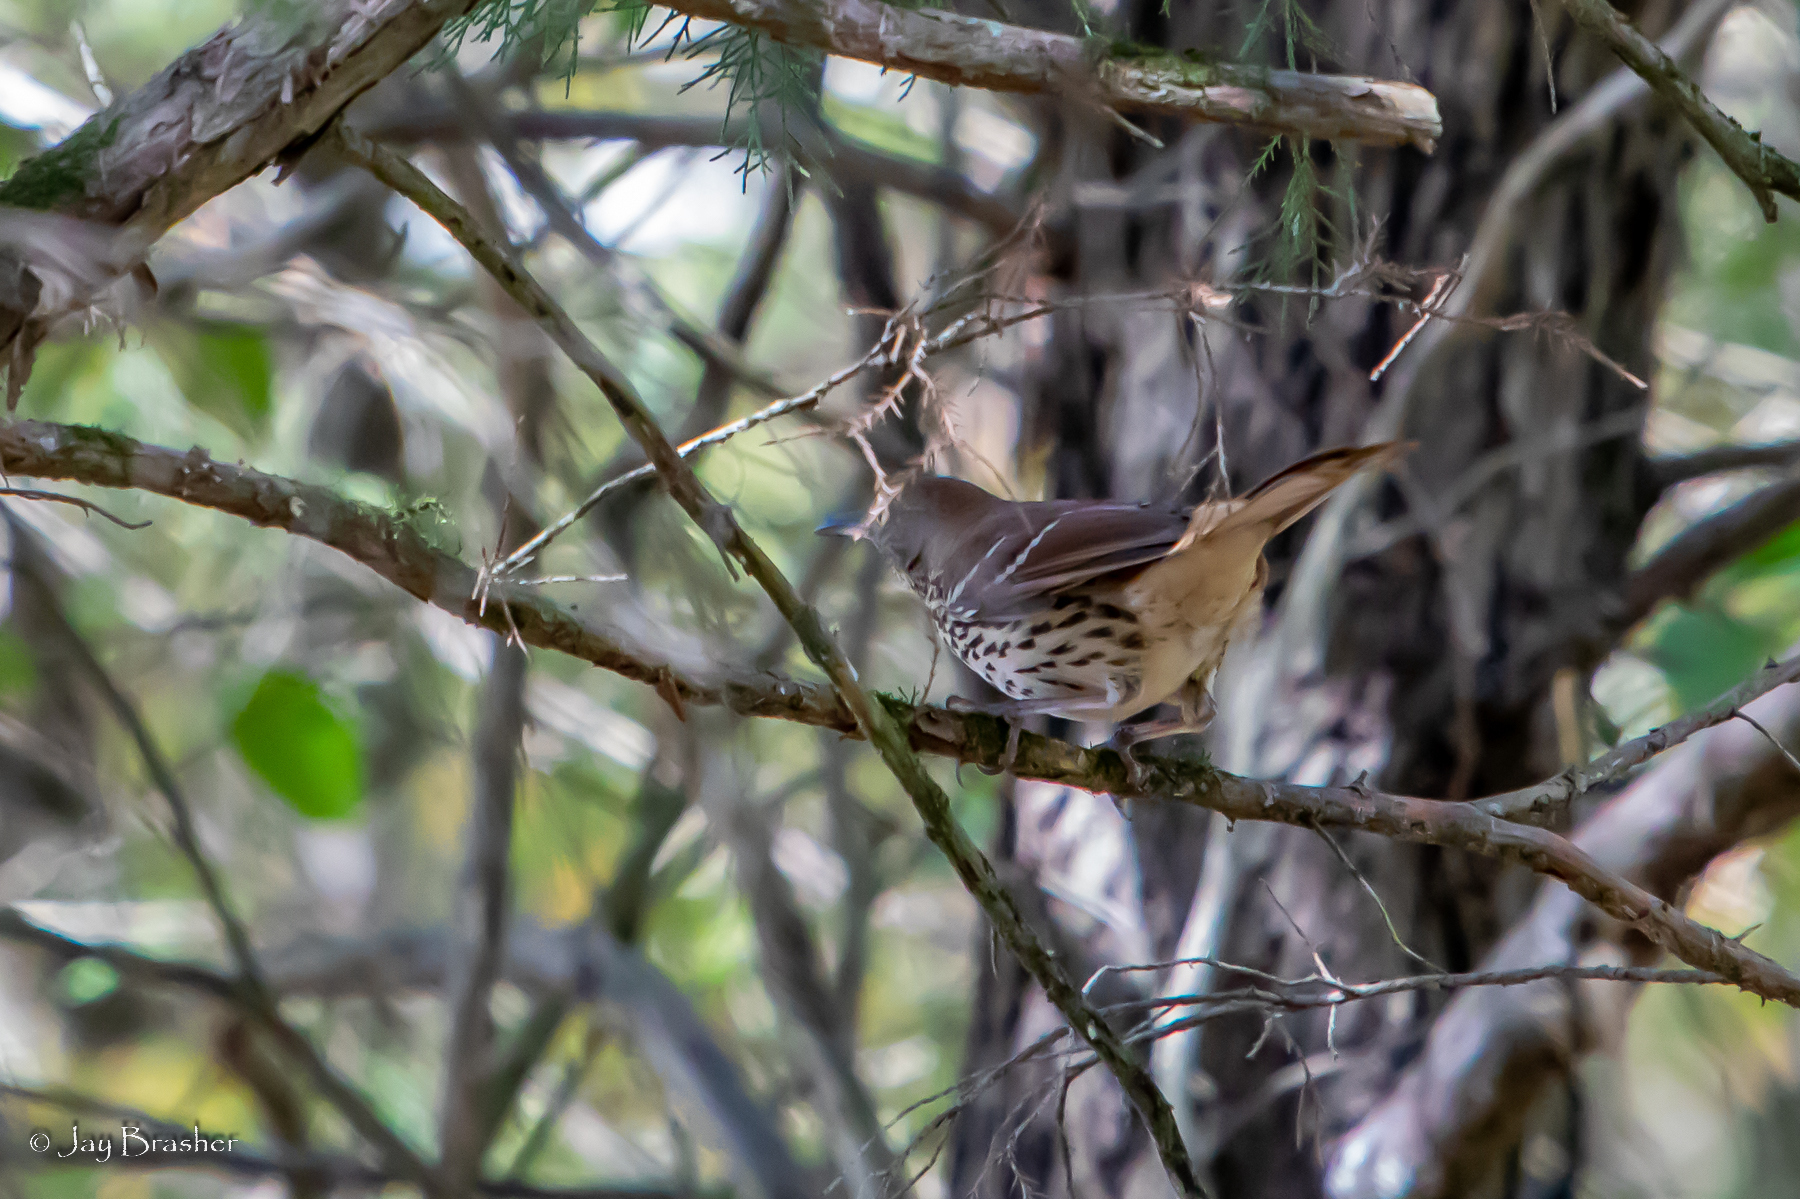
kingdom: Animalia
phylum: Chordata
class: Aves
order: Passeriformes
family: Mimidae
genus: Toxostoma
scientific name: Toxostoma rufum
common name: Brown thrasher
